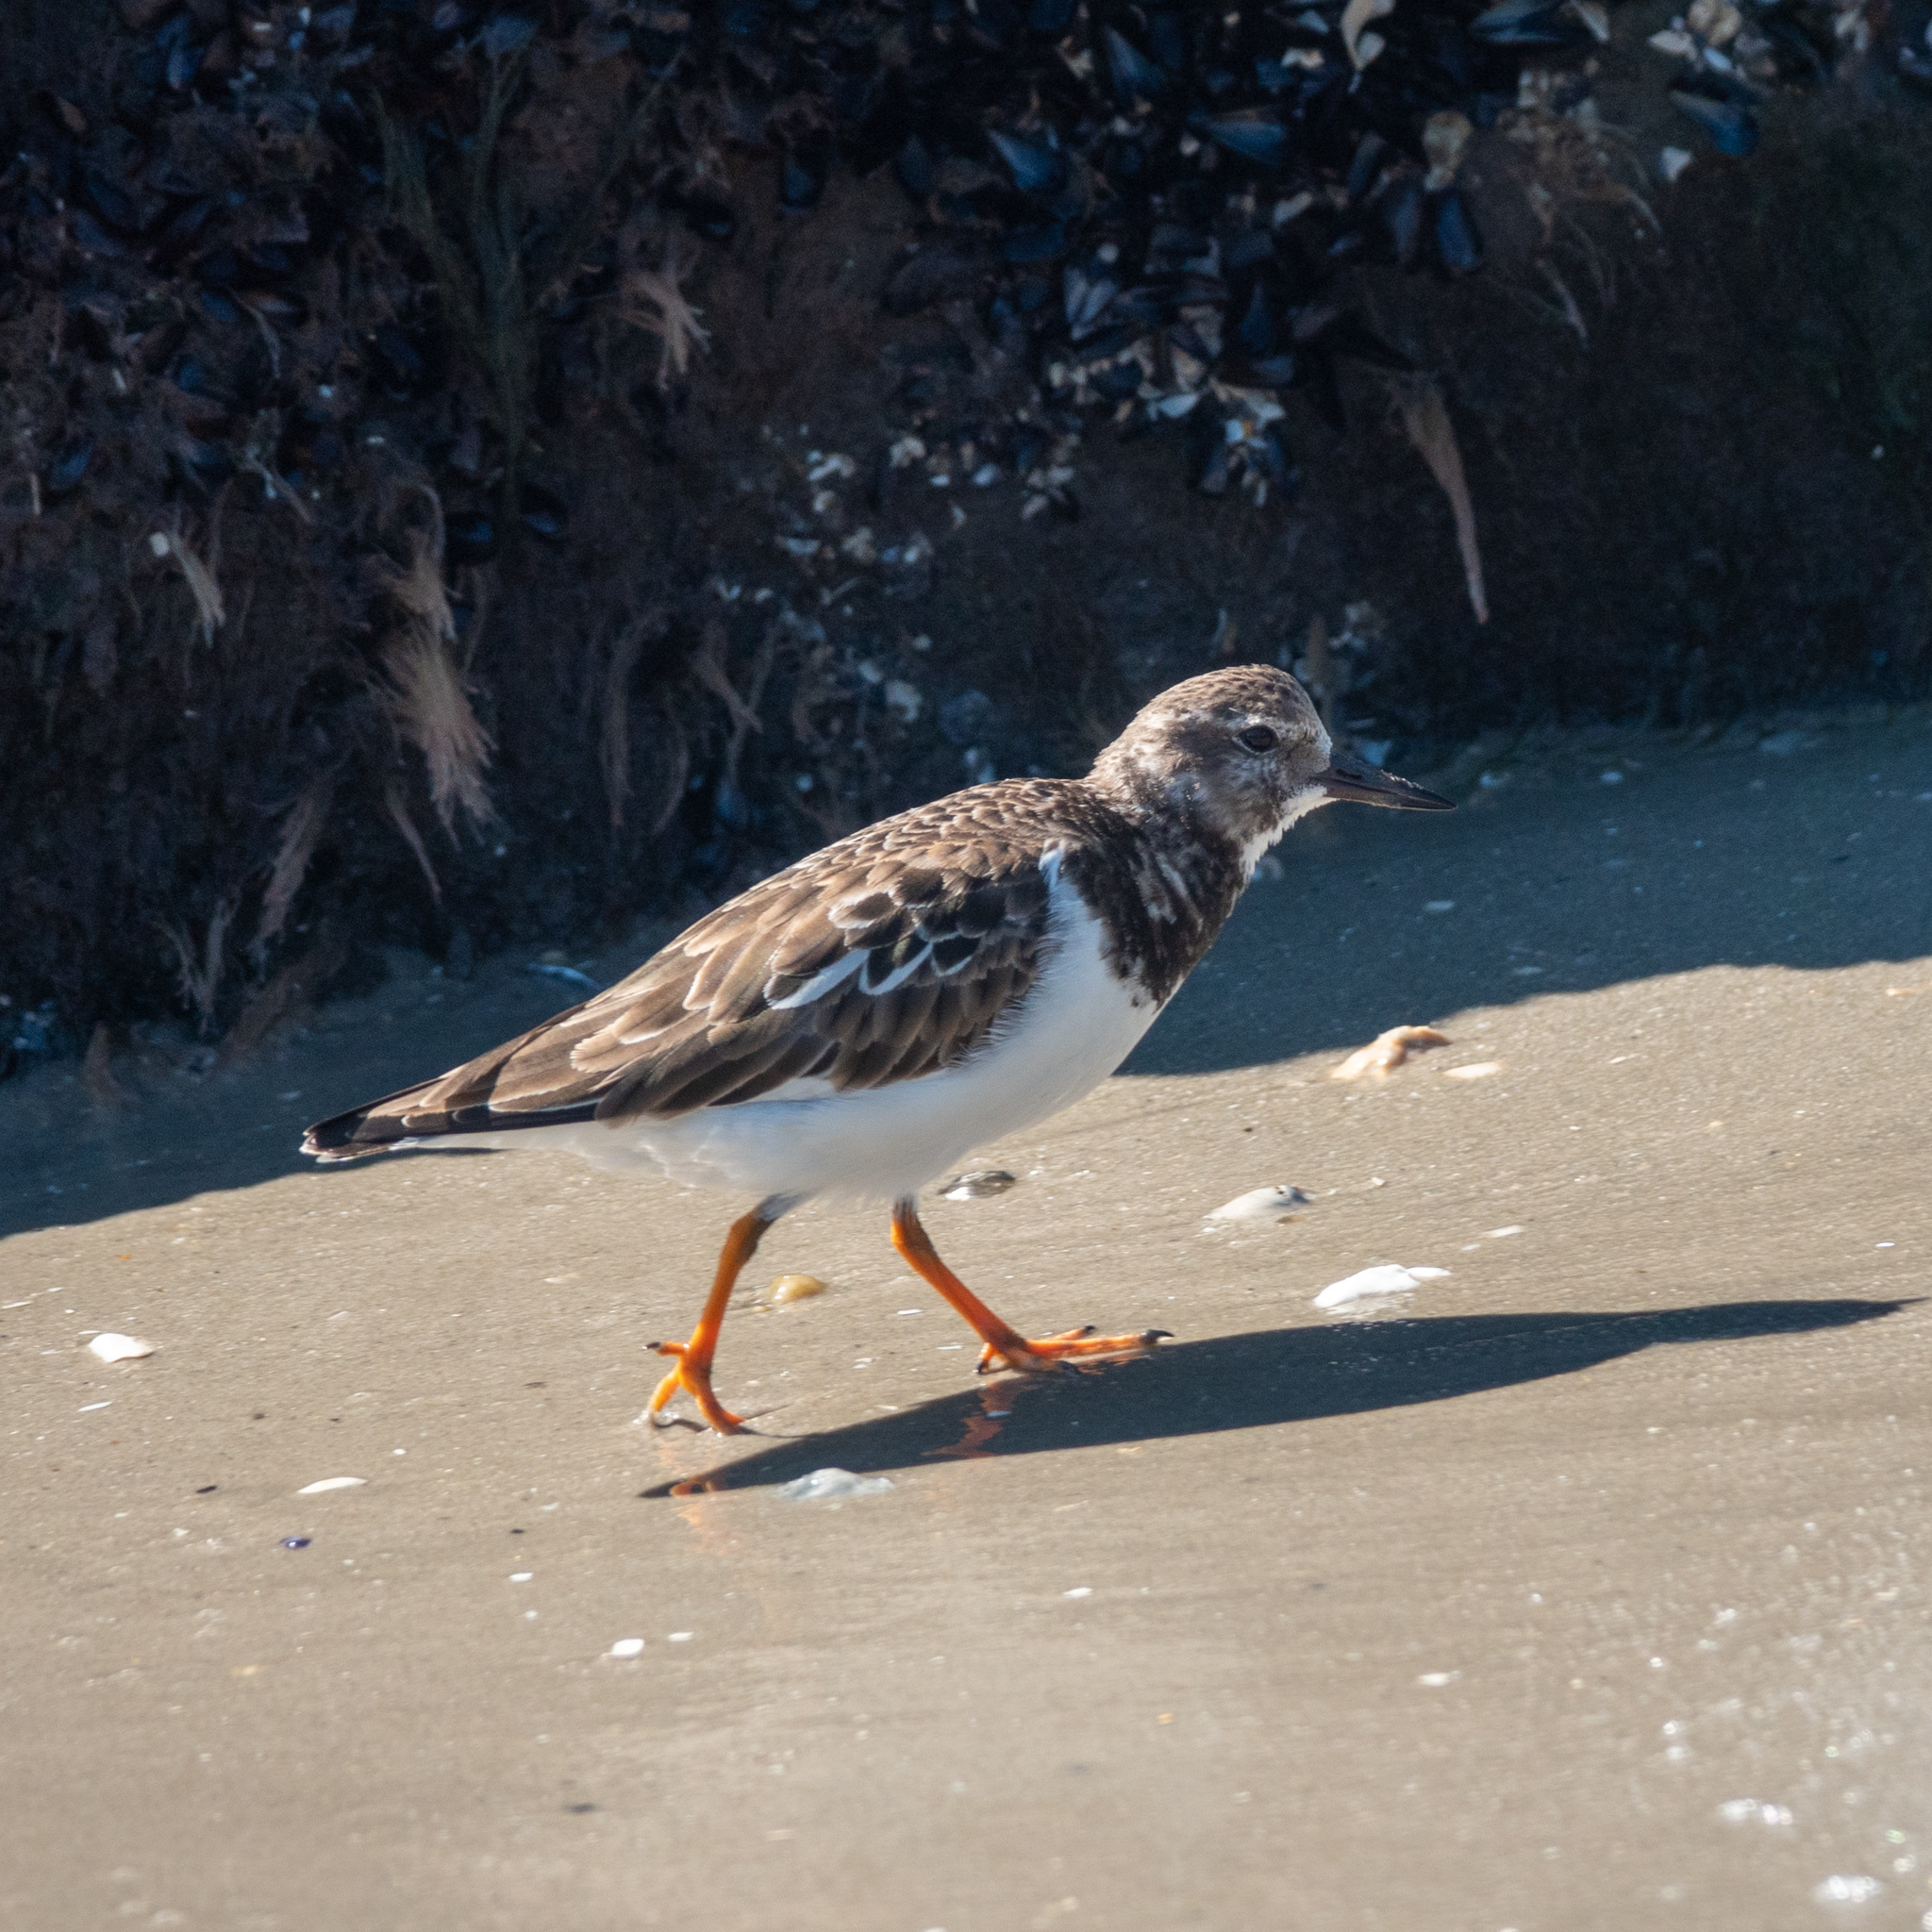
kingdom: Animalia
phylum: Chordata
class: Aves
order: Charadriiformes
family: Scolopacidae
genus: Arenaria
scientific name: Arenaria interpres
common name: Ruddy turnstone
